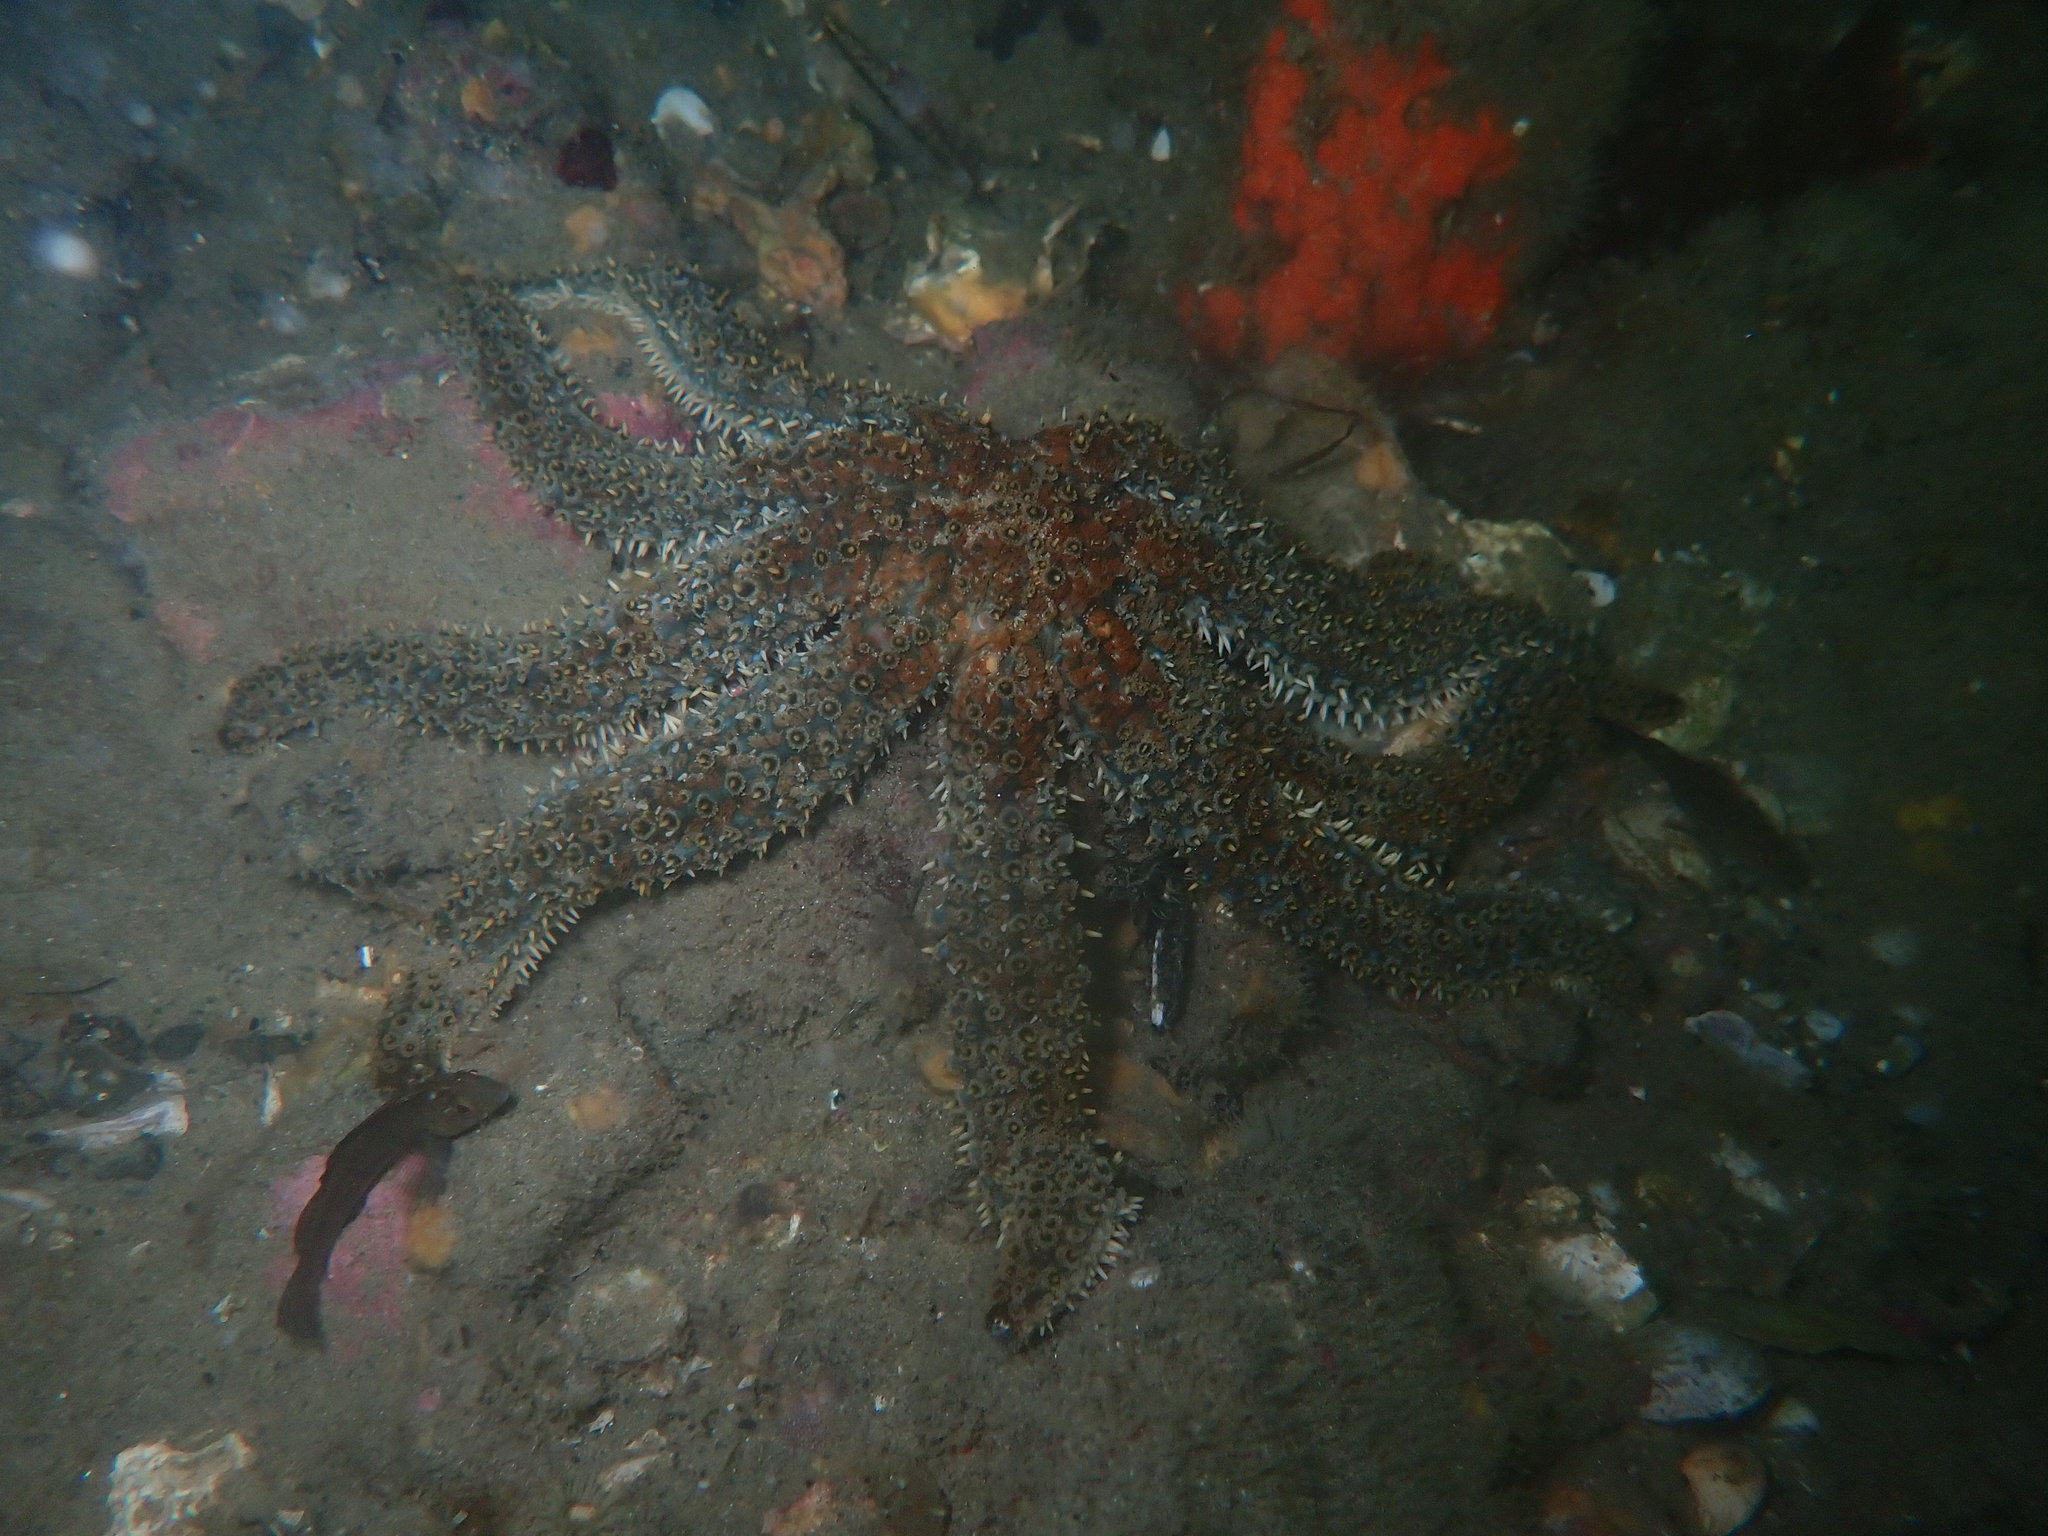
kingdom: Animalia
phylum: Echinodermata
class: Asteroidea
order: Forcipulatida
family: Asteriidae
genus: Coscinasterias
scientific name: Coscinasterias muricata
